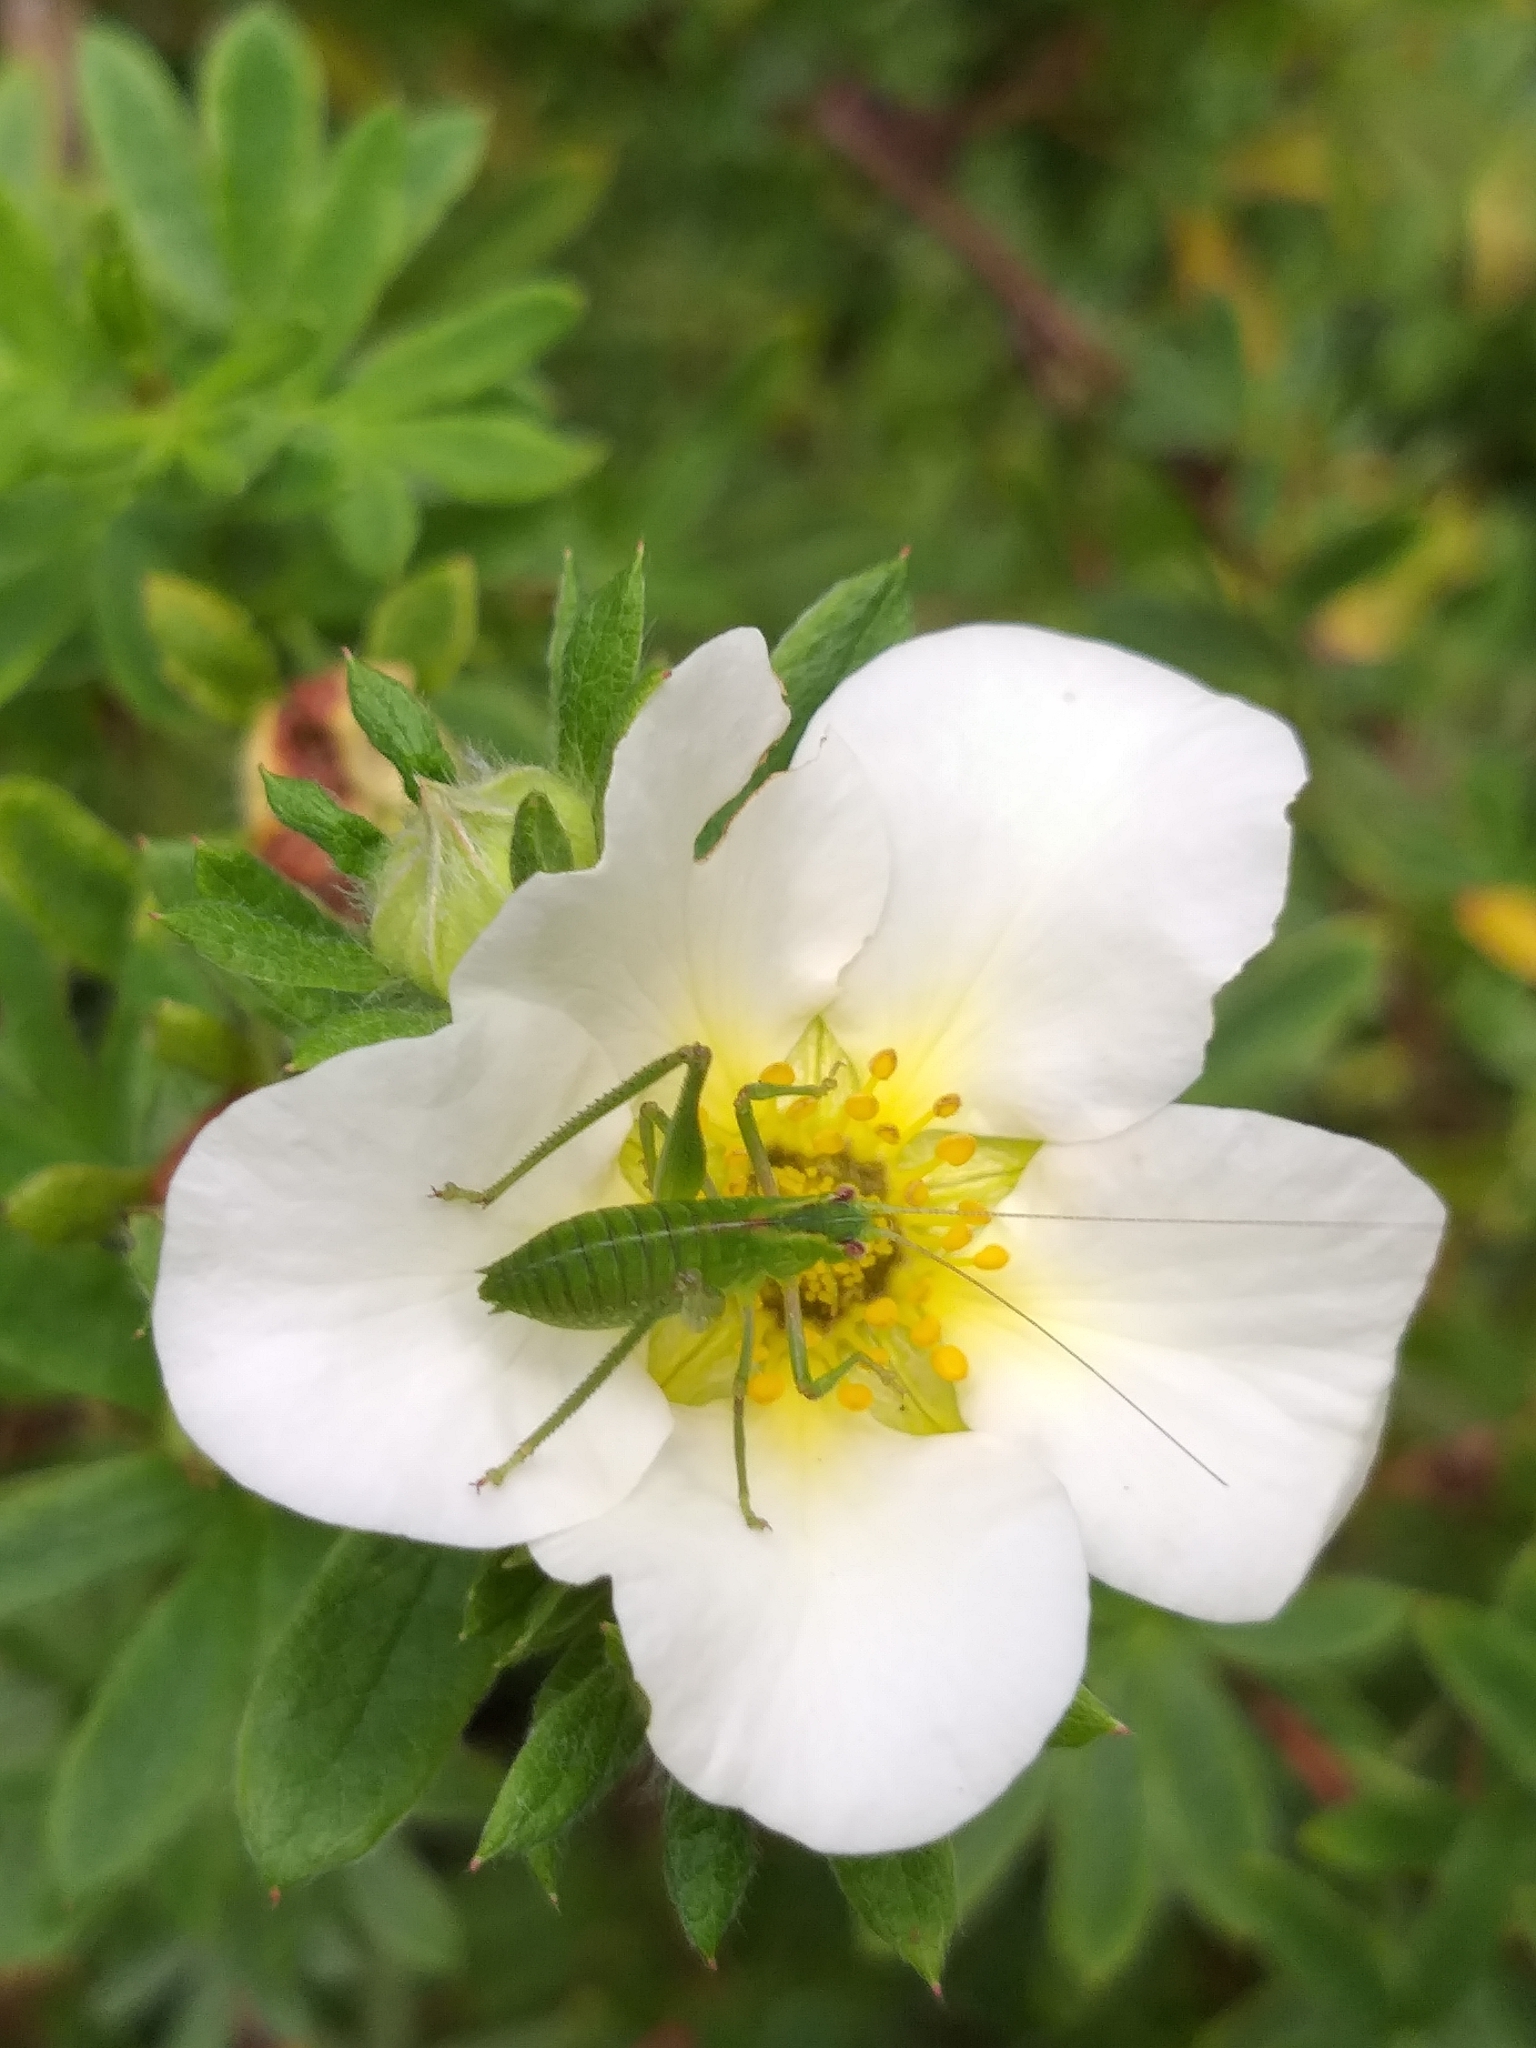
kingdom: Animalia
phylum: Arthropoda
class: Insecta
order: Orthoptera
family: Tettigoniidae
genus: Caedicia
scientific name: Caedicia simplex
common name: Common garden katydid
